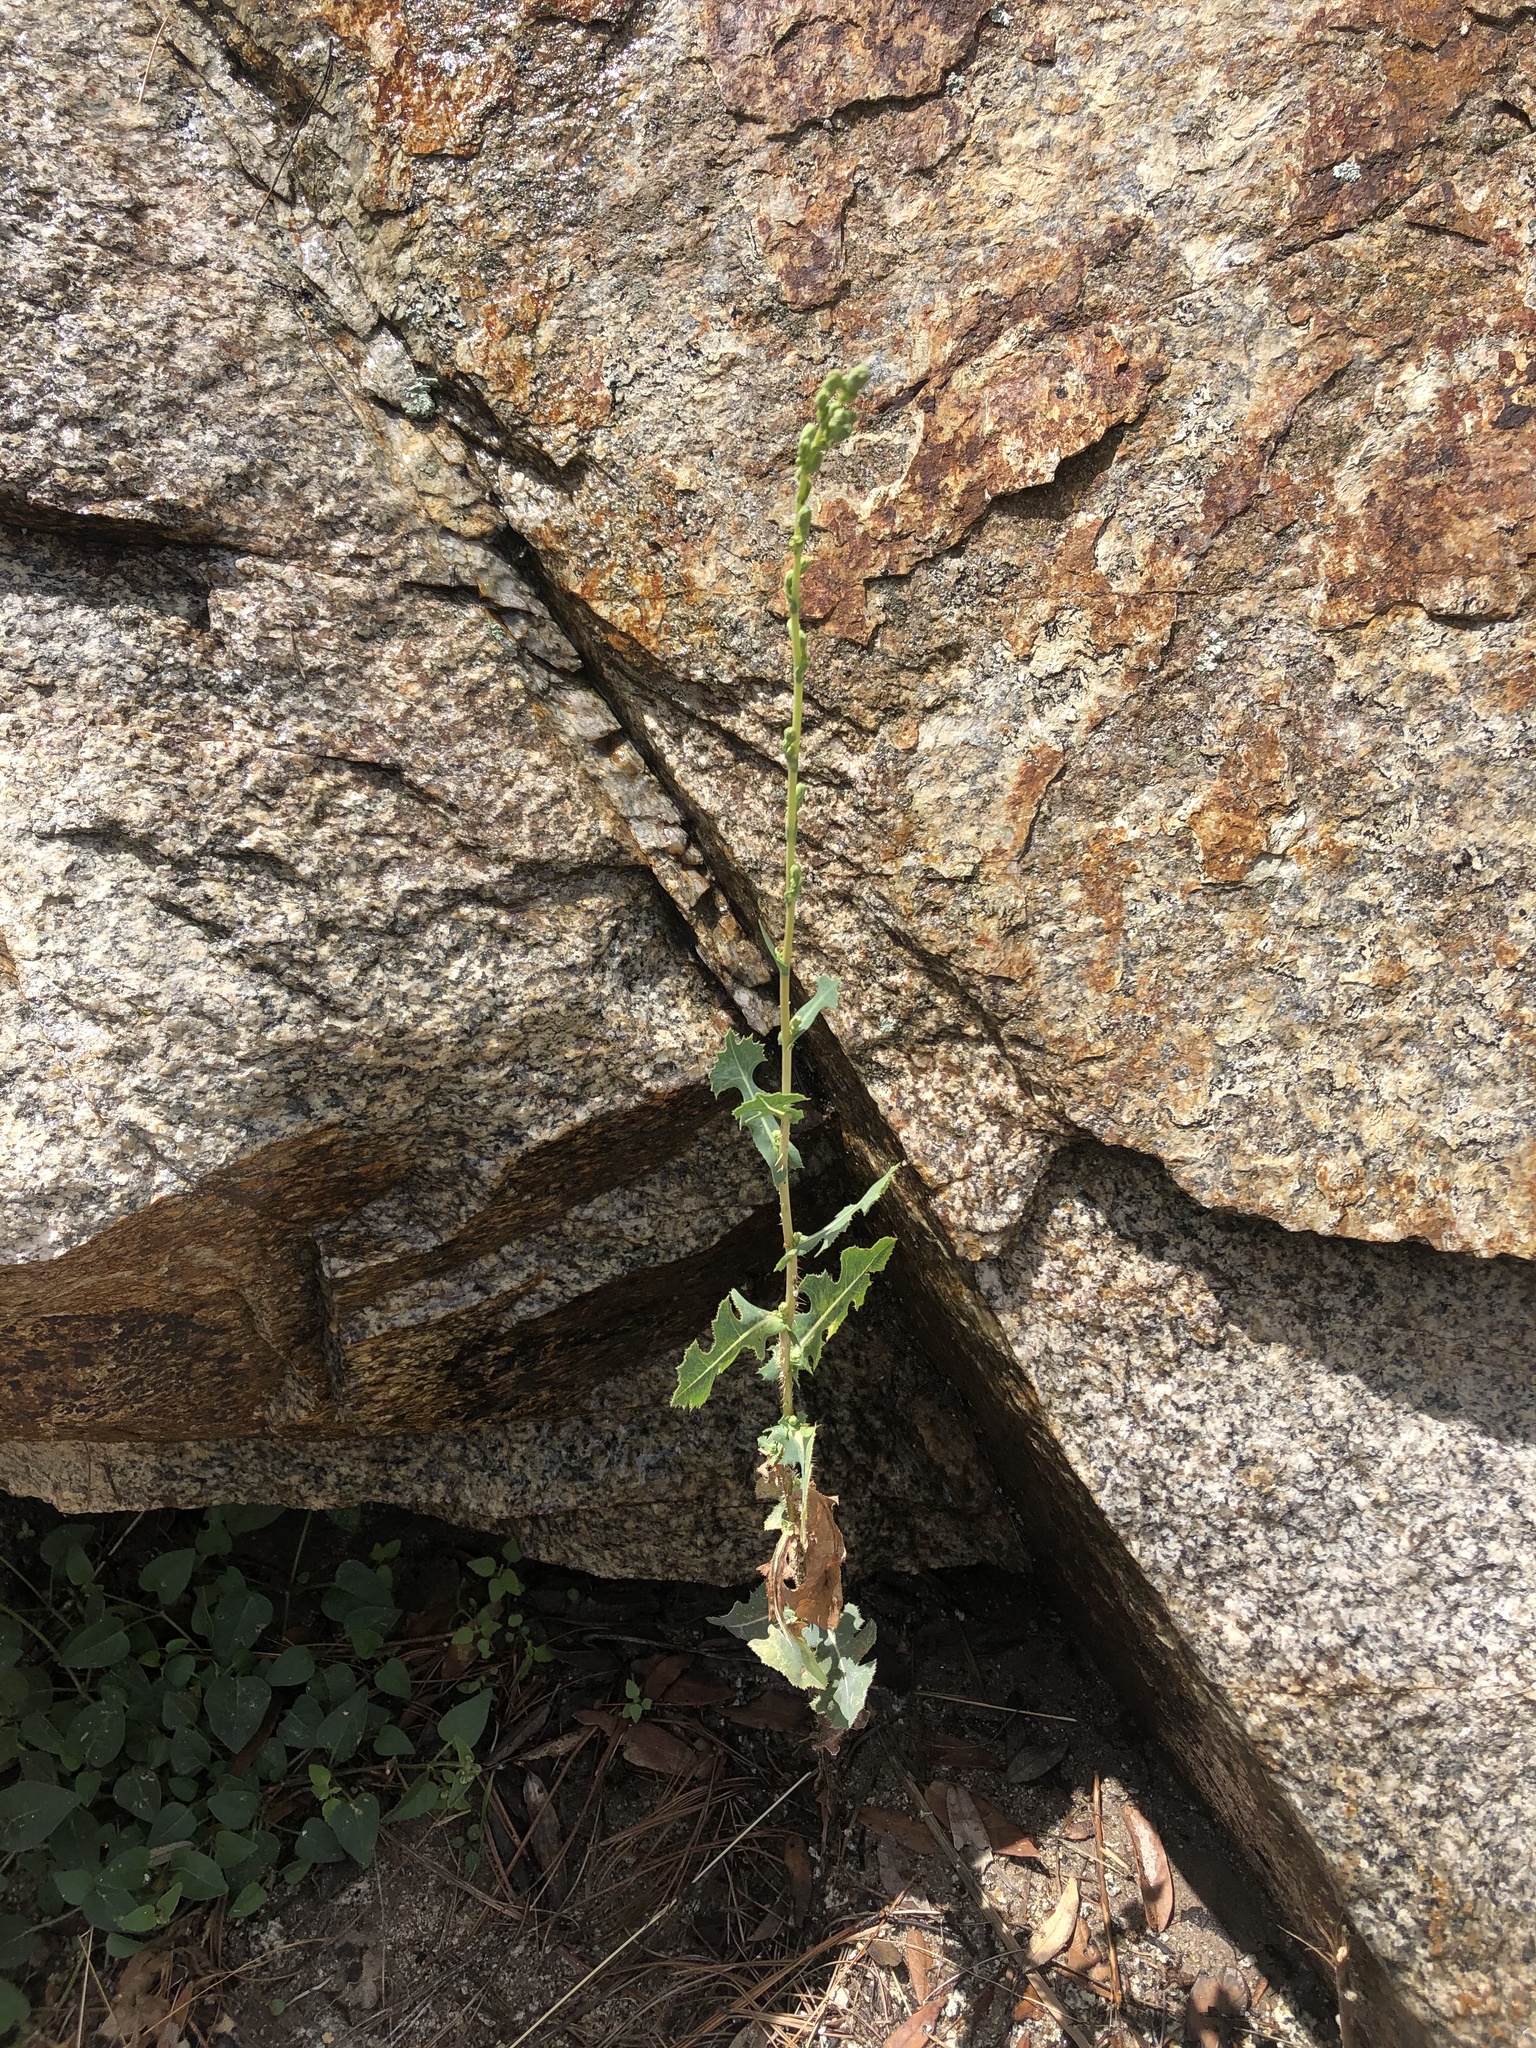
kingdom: Plantae
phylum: Tracheophyta
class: Magnoliopsida
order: Asterales
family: Asteraceae
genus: Lactuca
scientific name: Lactuca serriola
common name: Prickly lettuce
